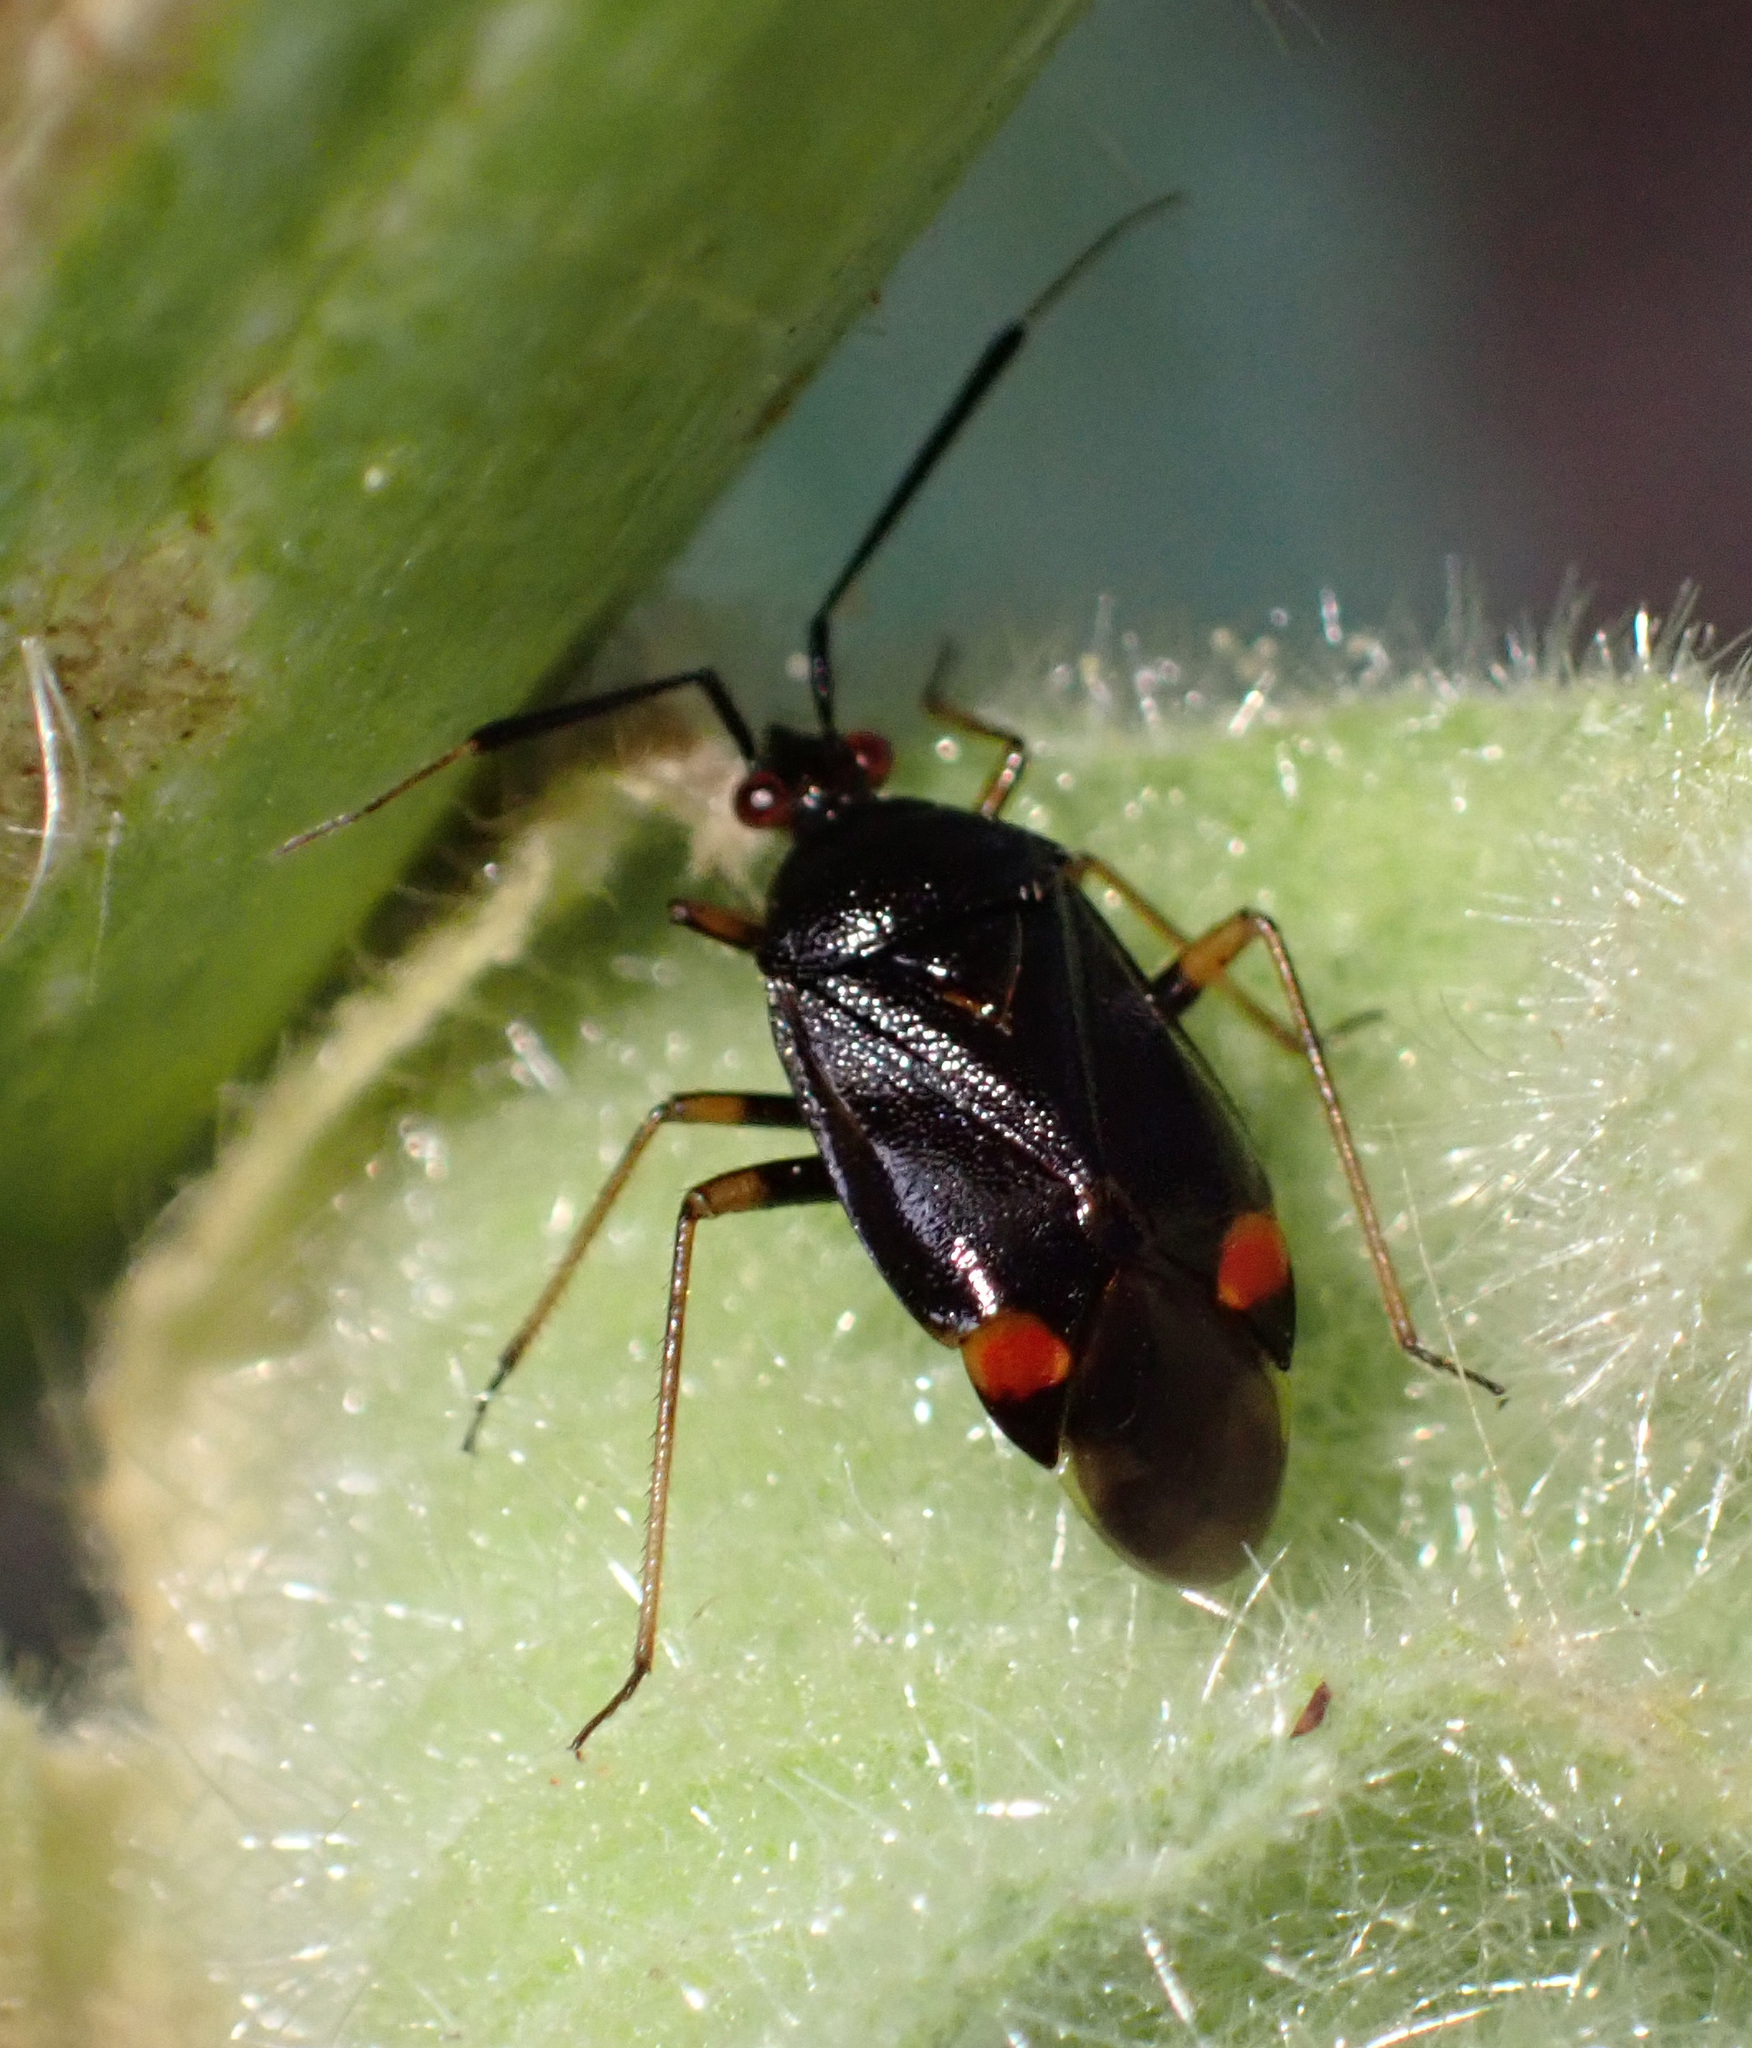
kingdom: Animalia
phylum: Arthropoda
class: Insecta
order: Hemiptera
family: Miridae
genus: Deraeocoris
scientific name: Deraeocoris ruber
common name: Plant bug
